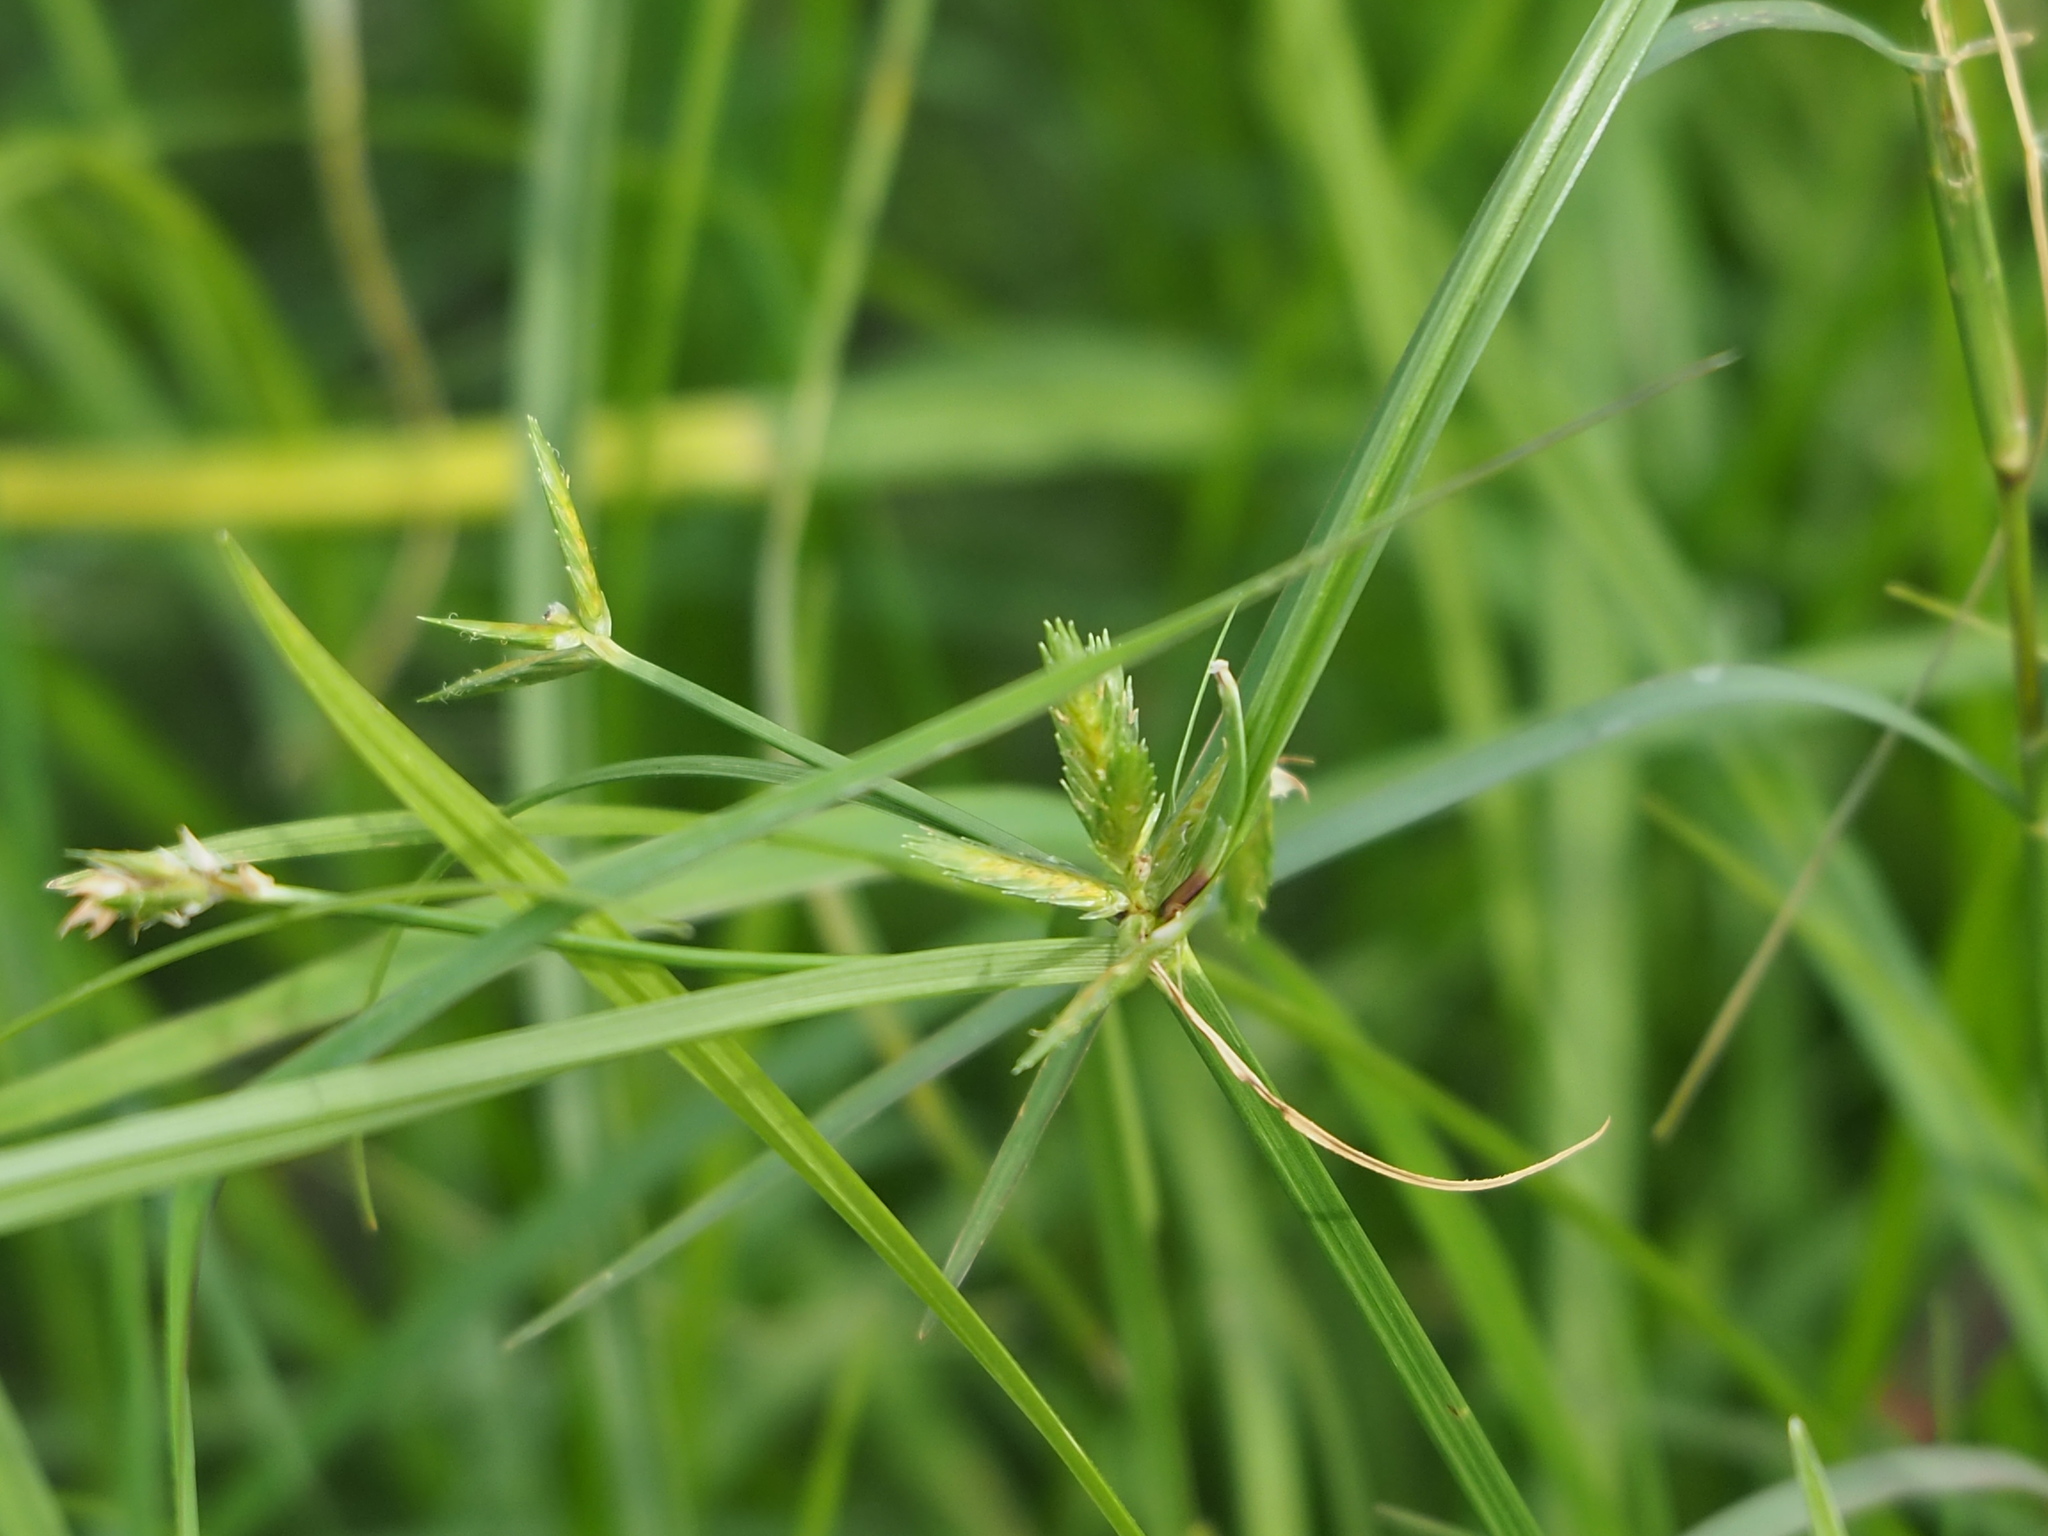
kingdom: Plantae
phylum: Tracheophyta
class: Liliopsida
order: Poales
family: Cyperaceae
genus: Cyperus
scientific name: Cyperus compressus
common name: Poorland flatsedge
